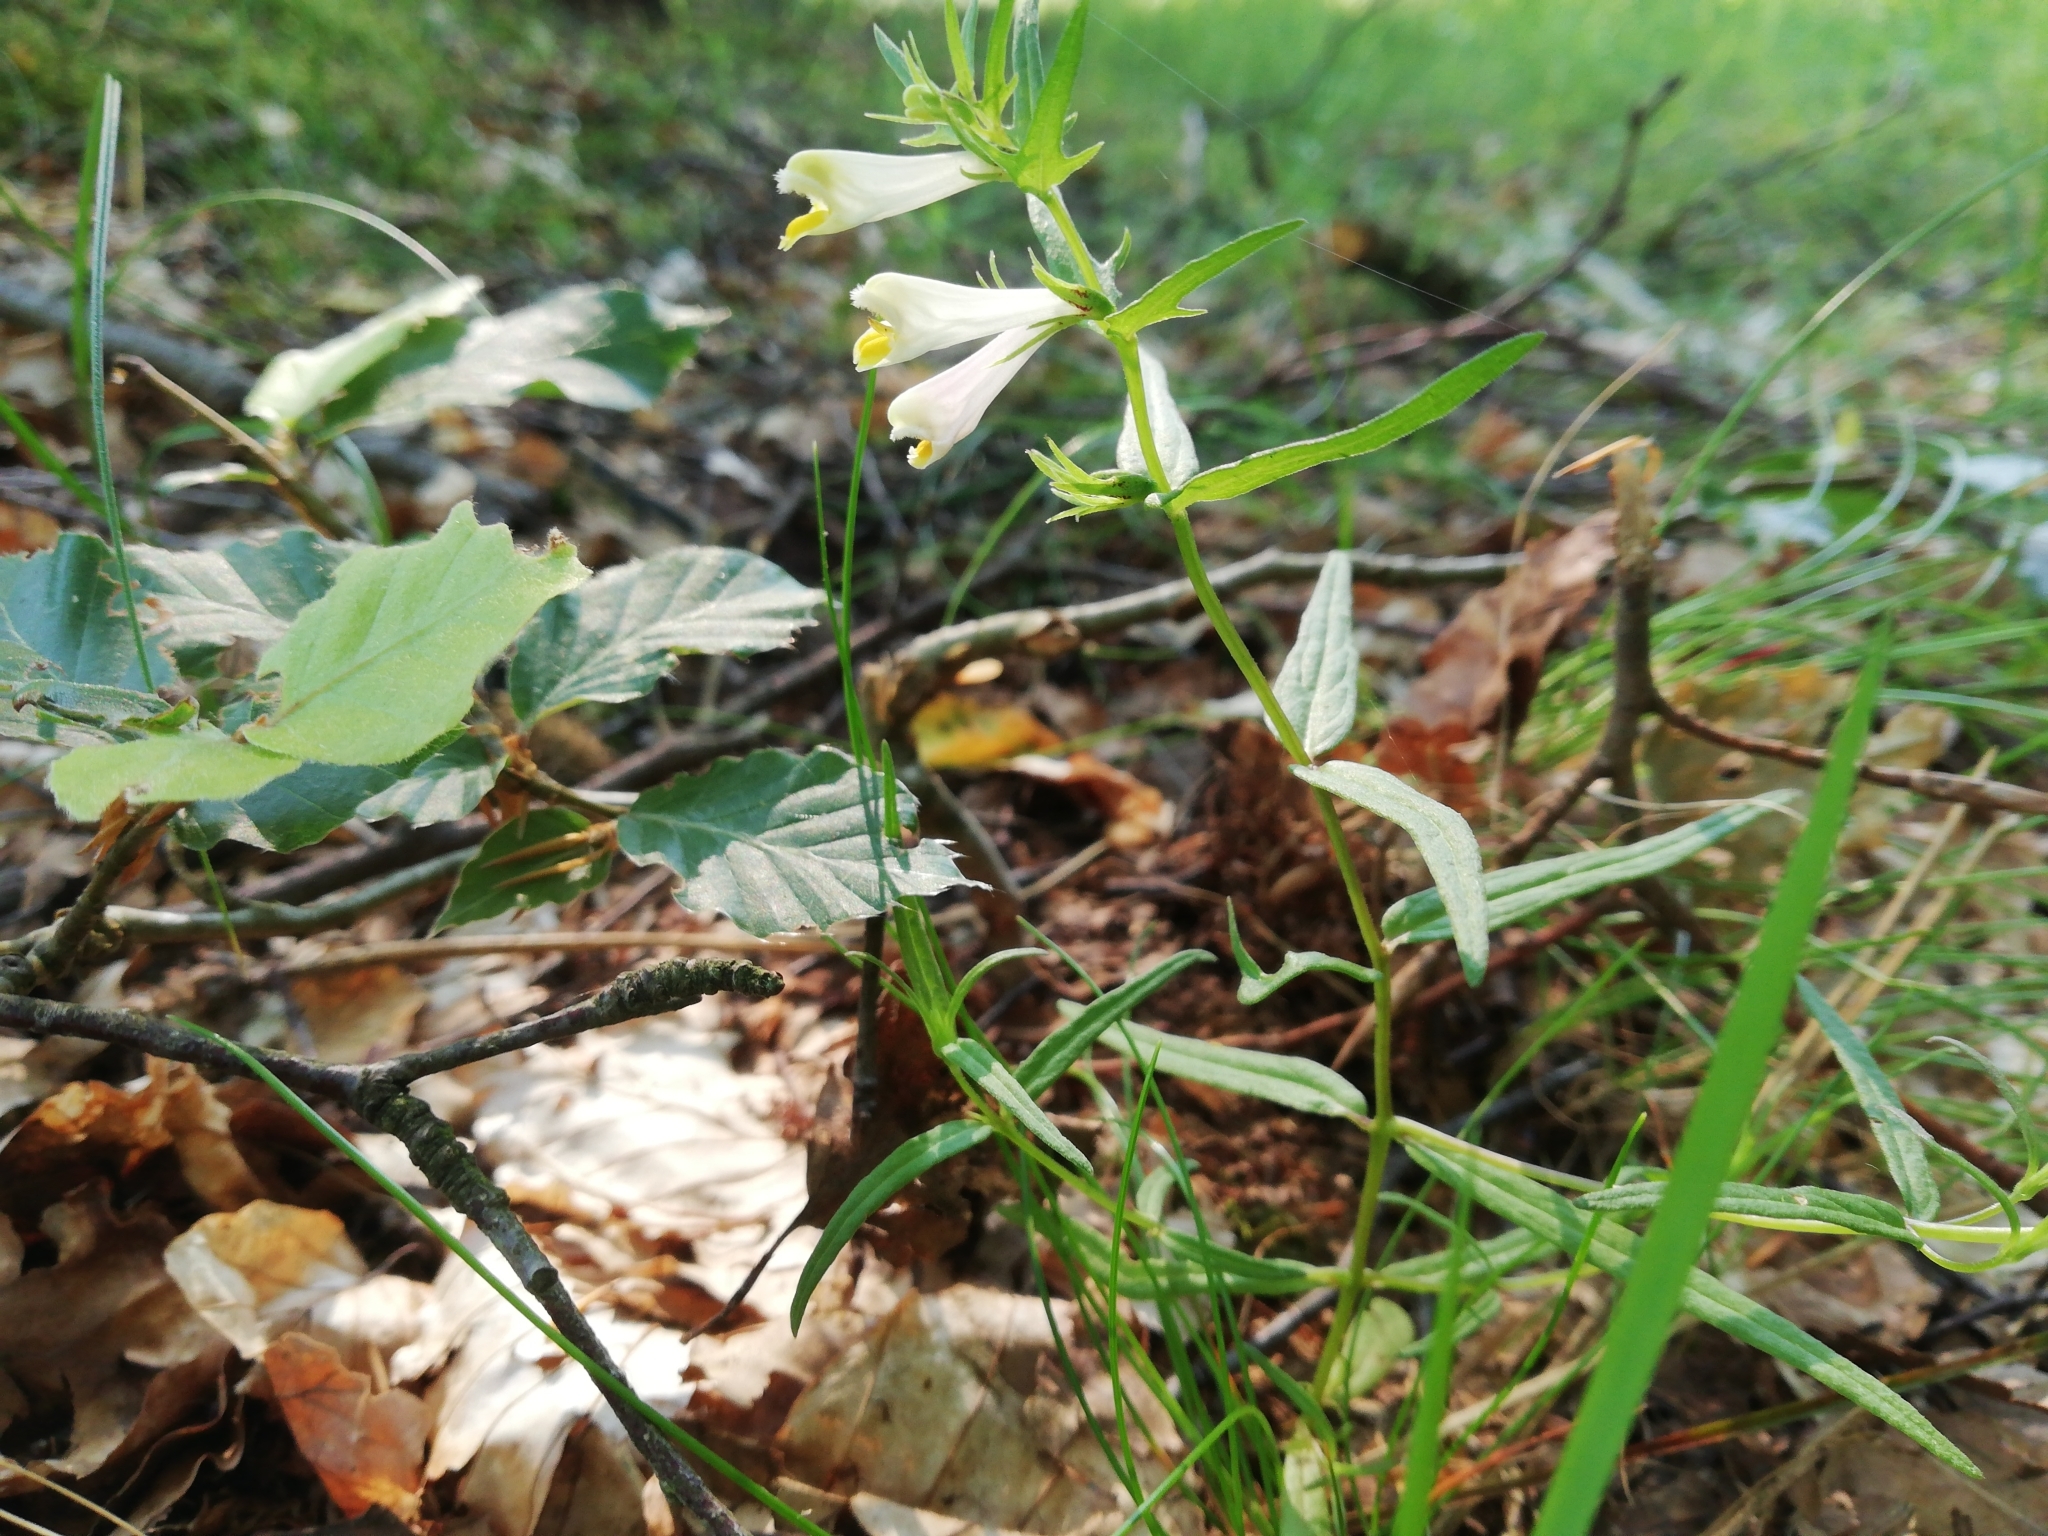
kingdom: Plantae
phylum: Tracheophyta
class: Magnoliopsida
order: Lamiales
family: Orobanchaceae
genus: Melampyrum
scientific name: Melampyrum pratense
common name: Common cow-wheat
